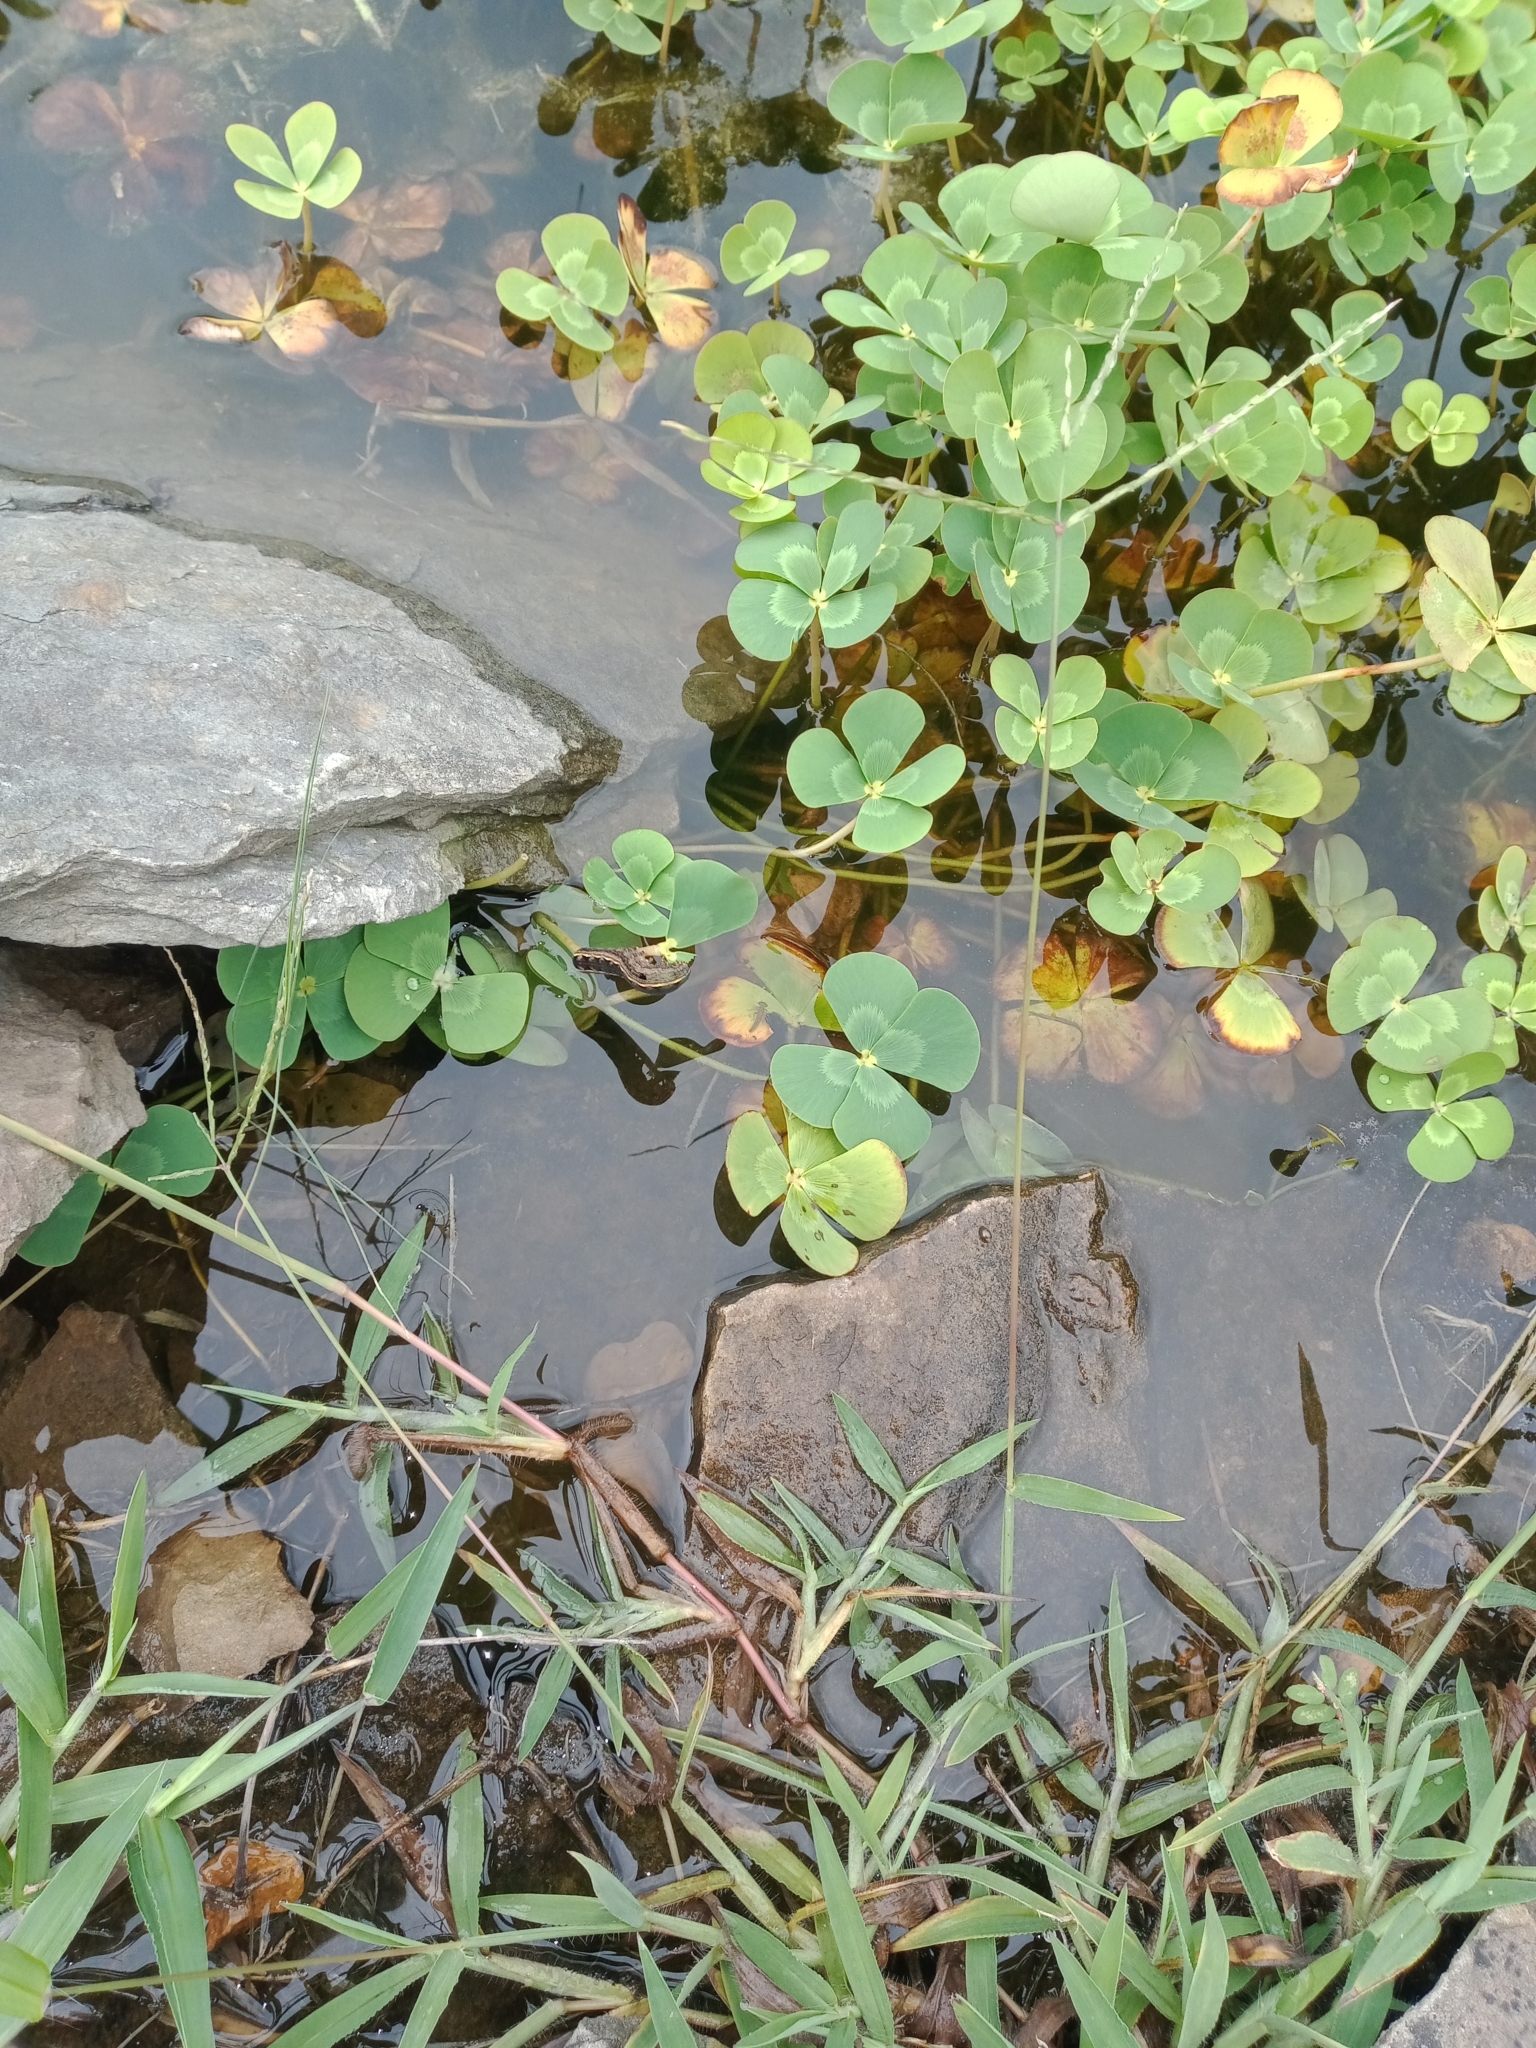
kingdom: Plantae
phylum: Tracheophyta
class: Polypodiopsida
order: Salviniales
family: Marsileaceae
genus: Marsilea
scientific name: Marsilea mutica
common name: Australian water-clover
